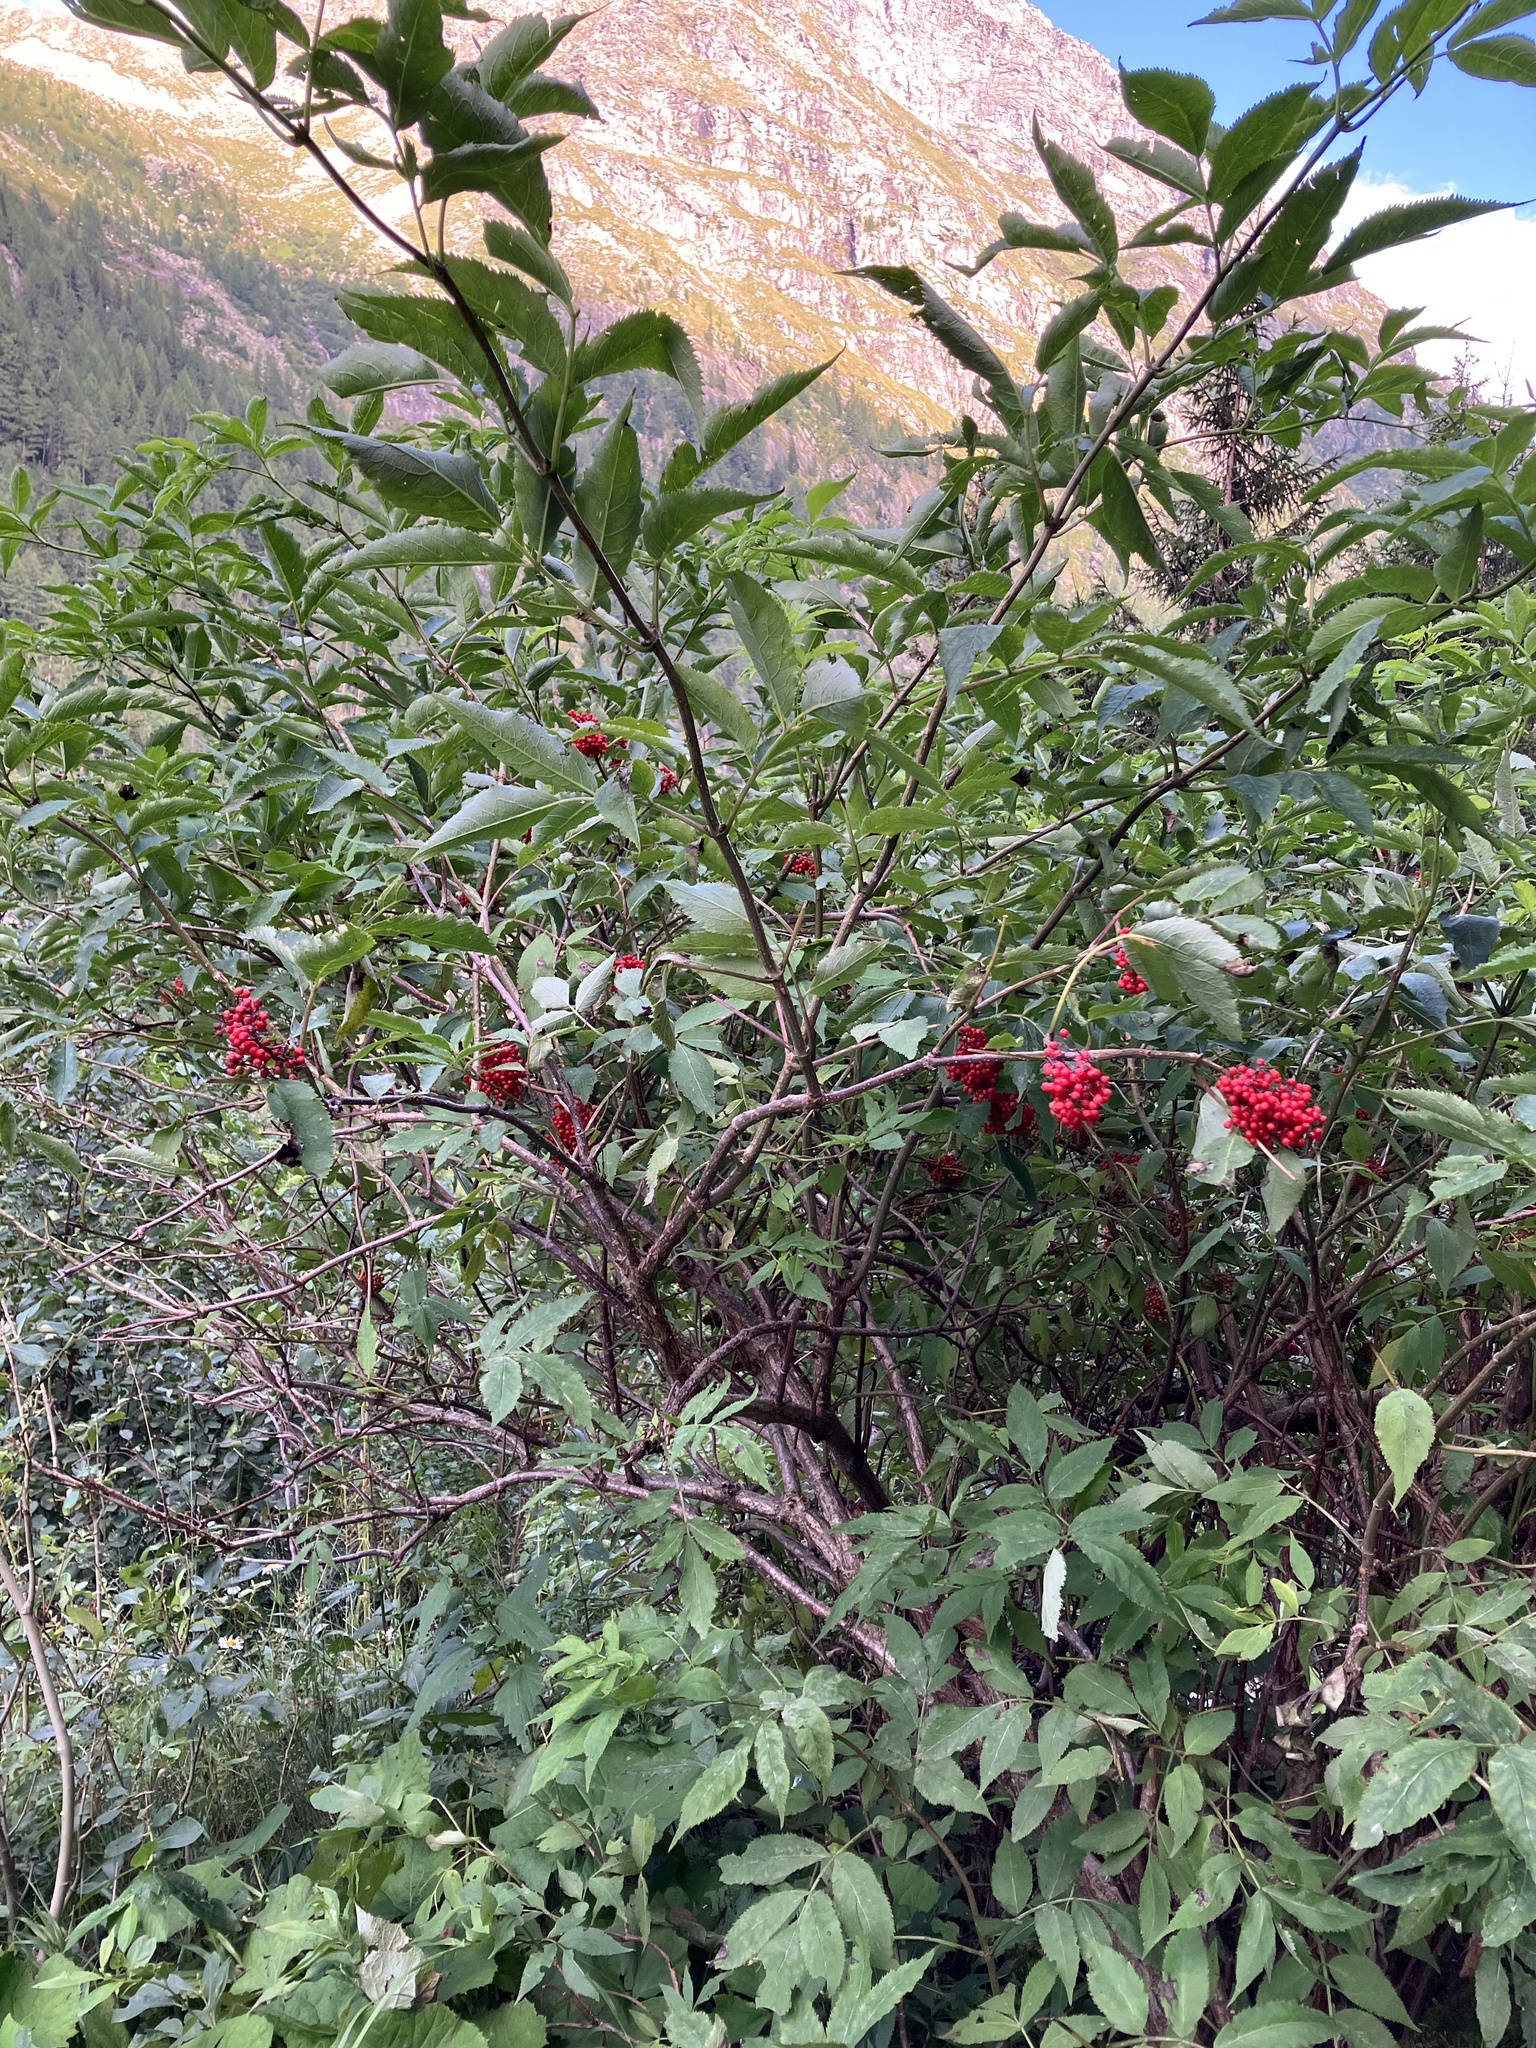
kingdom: Plantae
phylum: Tracheophyta
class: Magnoliopsida
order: Dipsacales
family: Viburnaceae
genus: Sambucus
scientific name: Sambucus racemosa
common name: Red-berried elder
